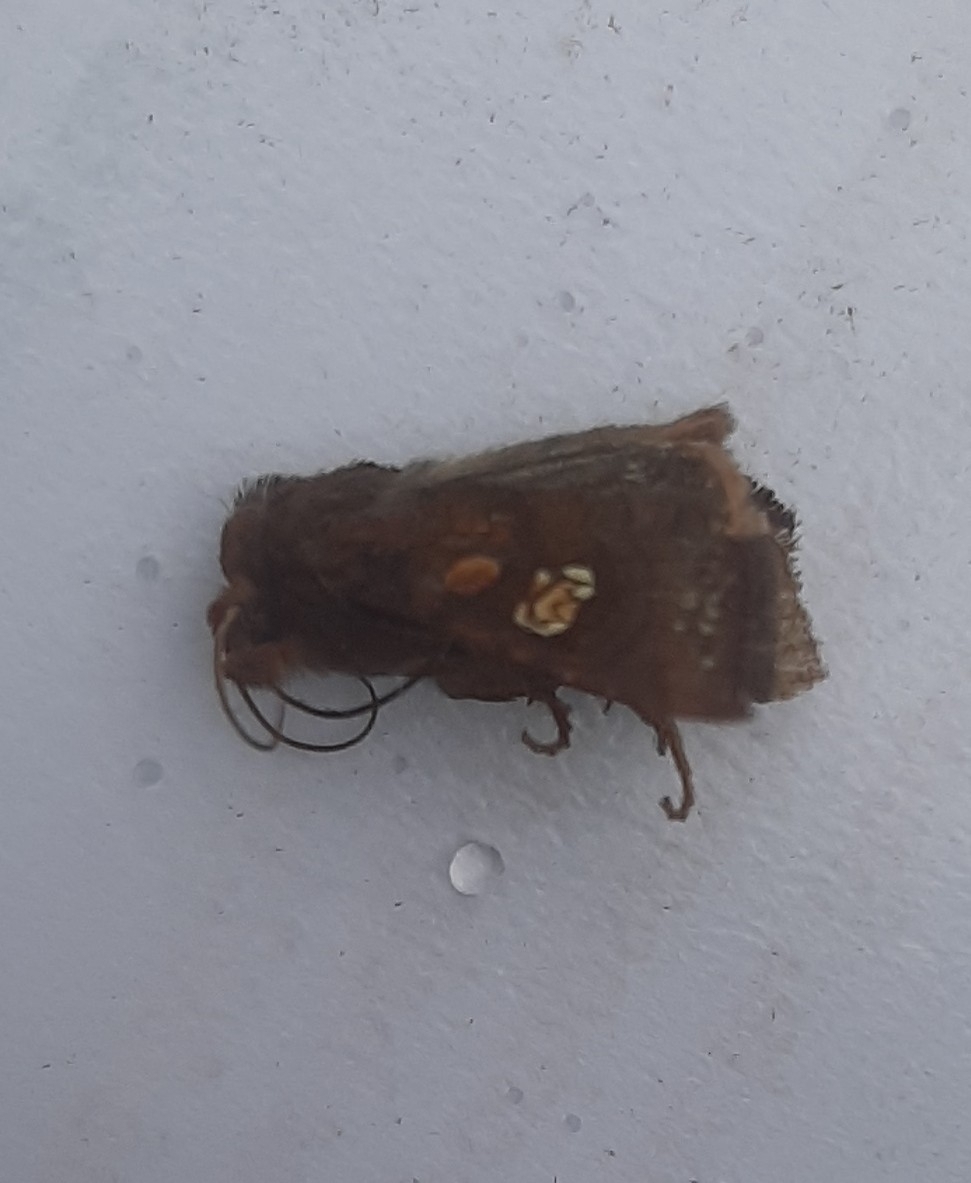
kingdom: Animalia
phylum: Arthropoda
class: Insecta
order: Lepidoptera
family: Noctuidae
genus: Amphipoea
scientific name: Amphipoea oculea
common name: Ear moth
